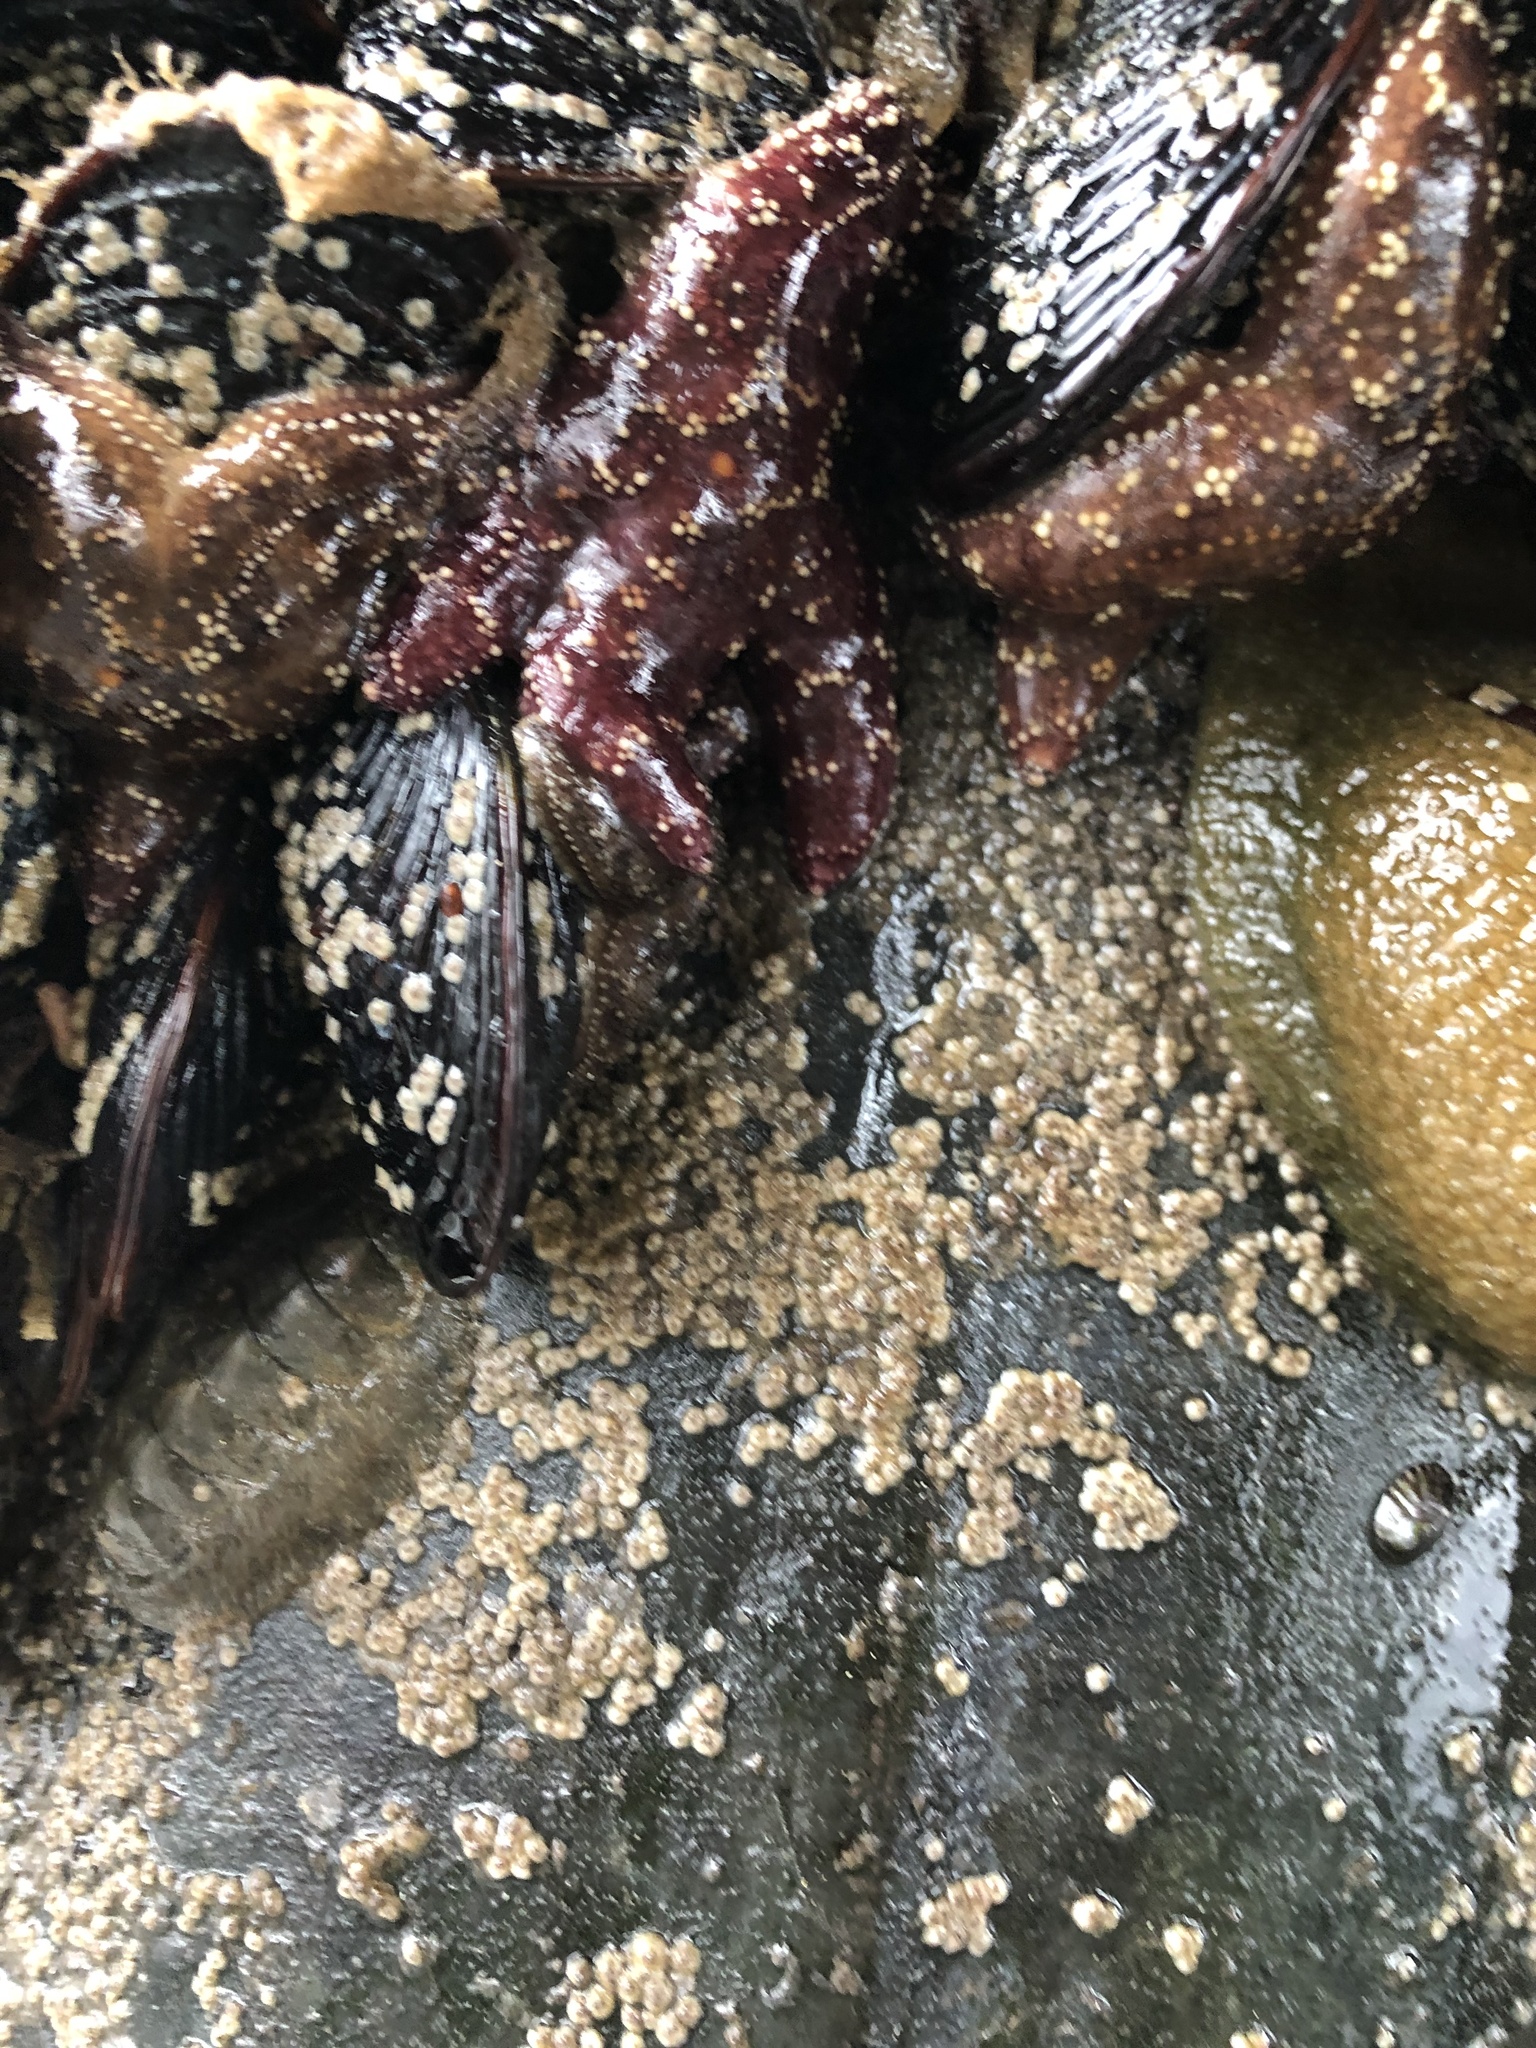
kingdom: Animalia
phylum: Echinodermata
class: Asteroidea
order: Forcipulatida
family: Asteriidae
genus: Pisaster
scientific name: Pisaster ochraceus
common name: Ochre stars
